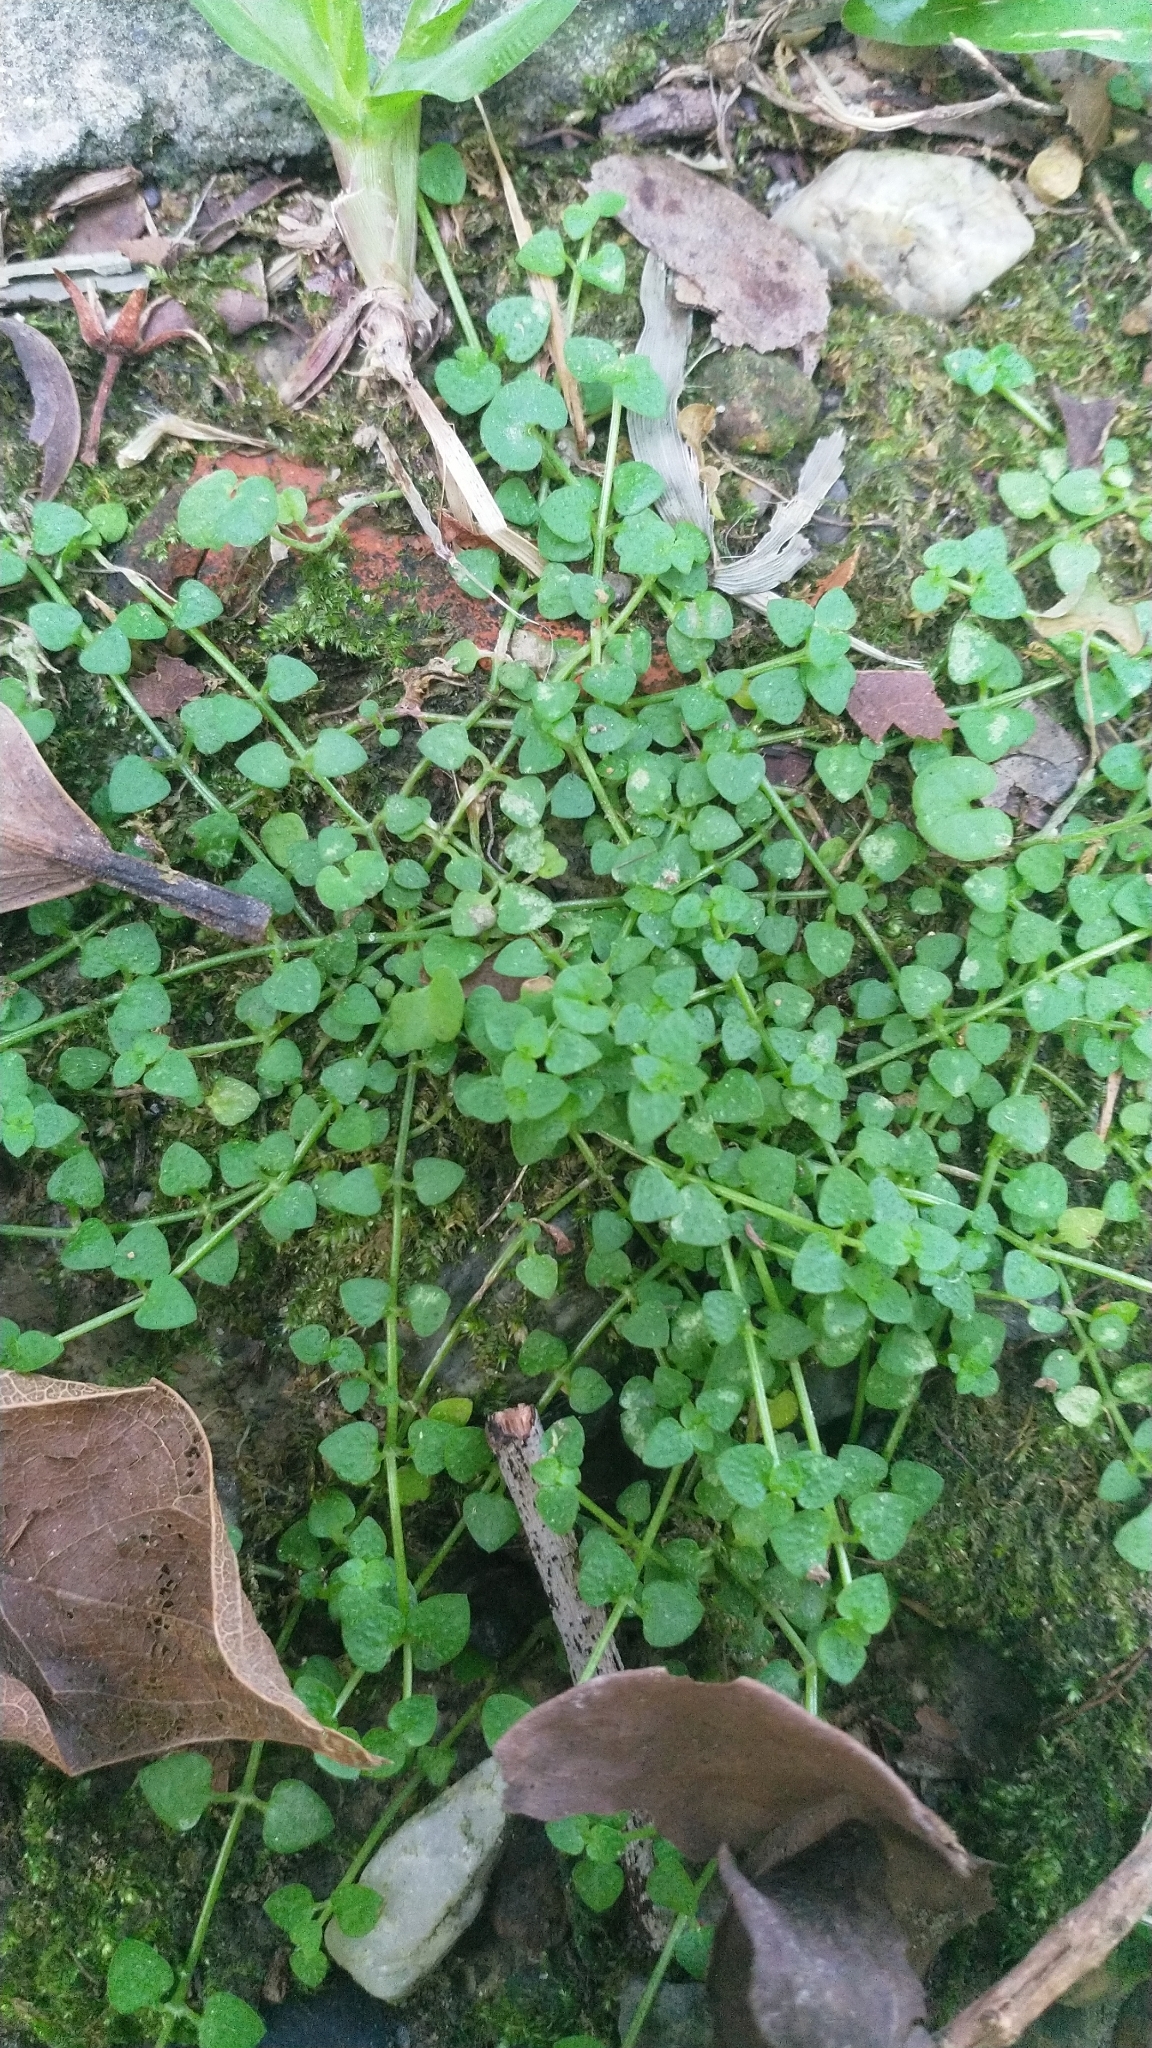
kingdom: Plantae
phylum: Tracheophyta
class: Magnoliopsida
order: Gentianales
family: Rubiaceae
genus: Oldenlandiopsis
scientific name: Oldenlandiopsis callitrichoides
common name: Creeping-bluet
